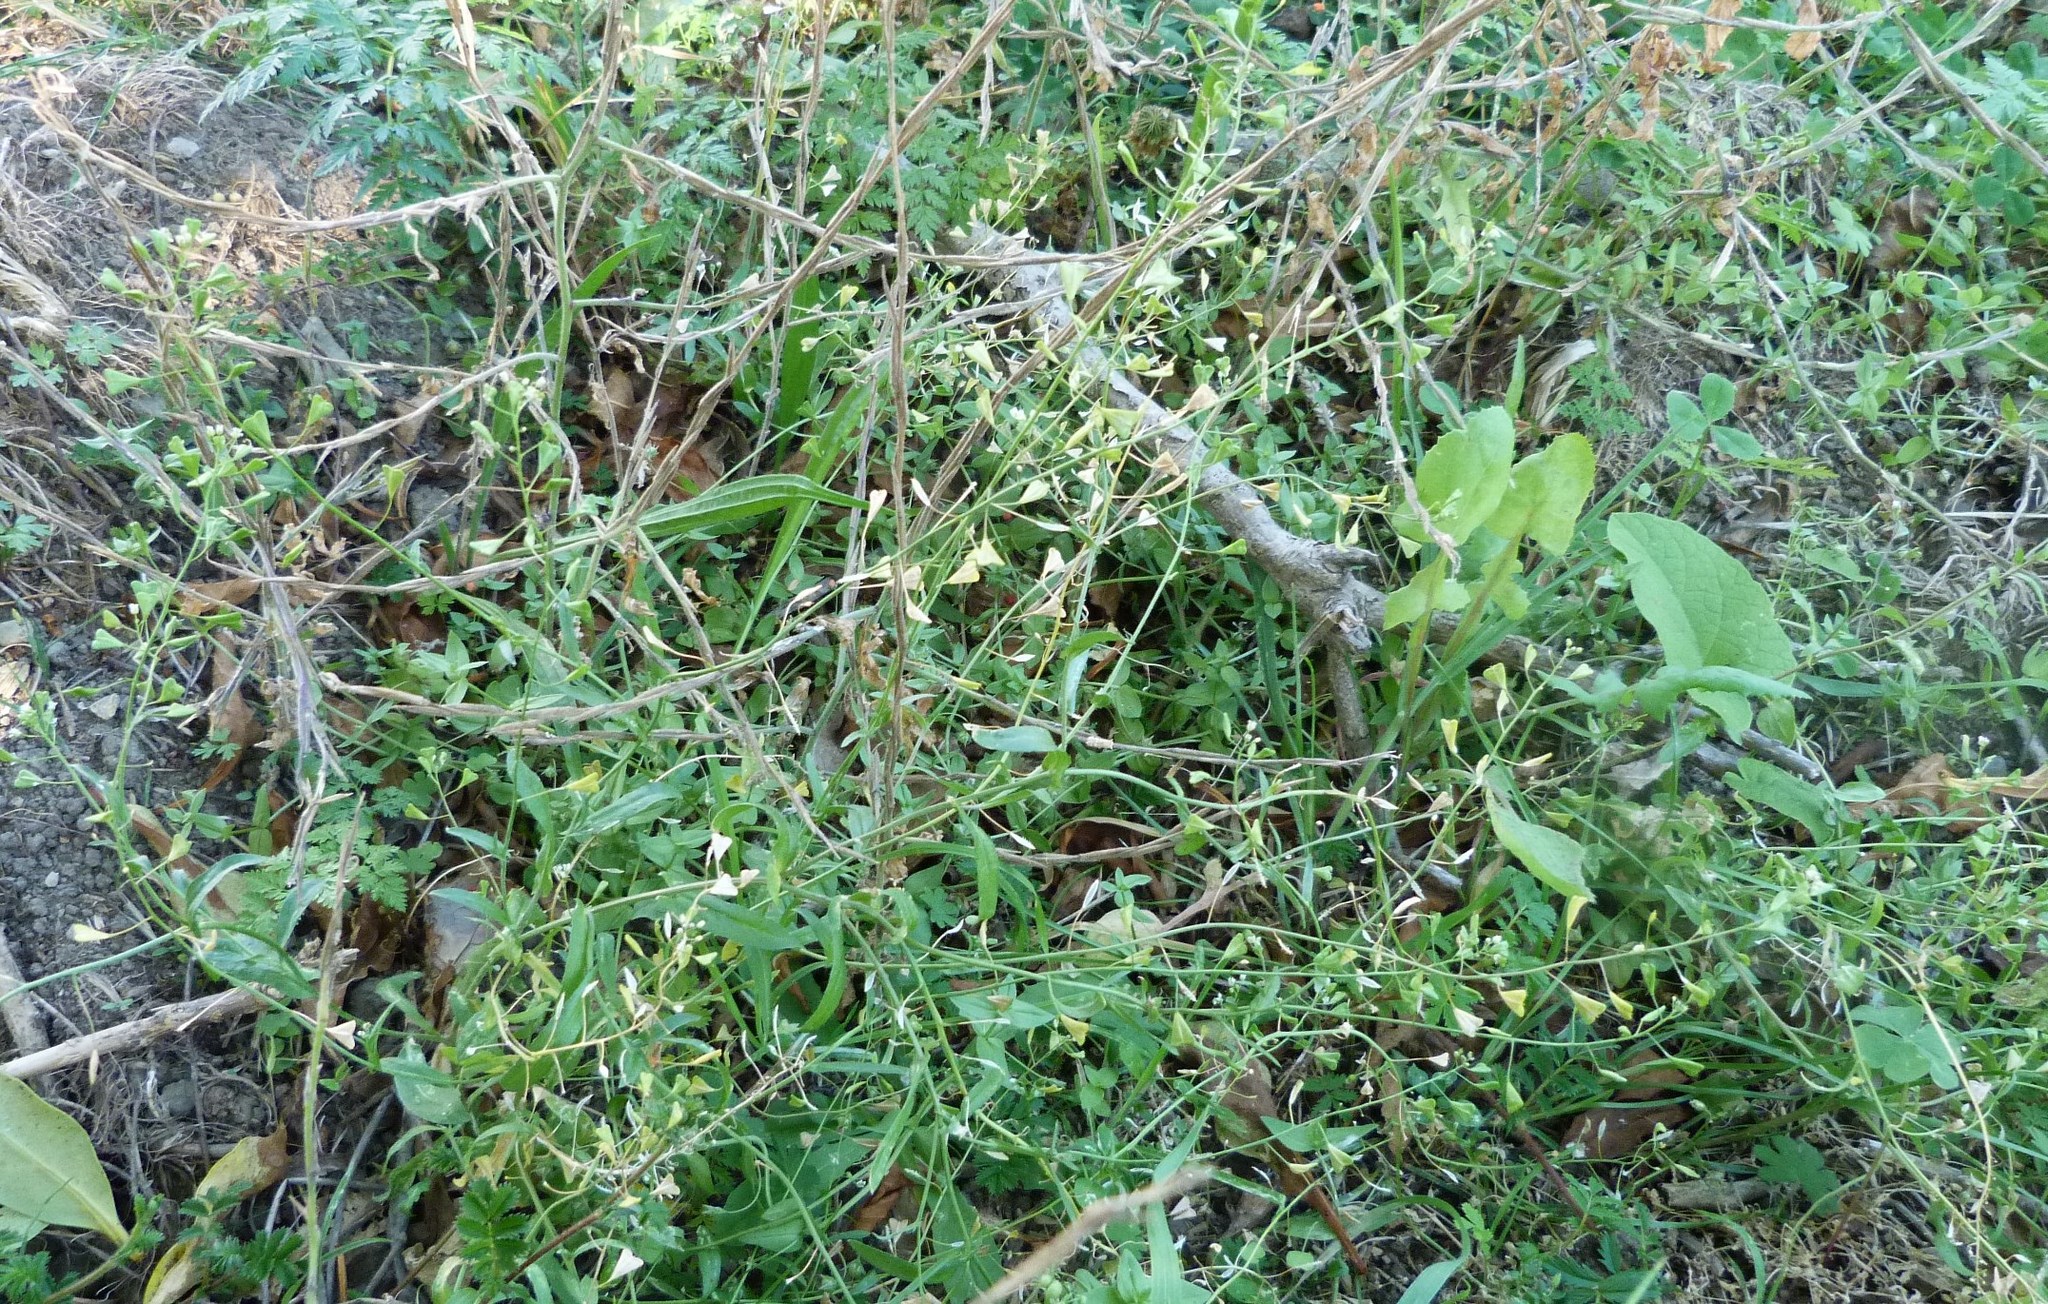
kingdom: Plantae
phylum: Tracheophyta
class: Magnoliopsida
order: Brassicales
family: Brassicaceae
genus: Capsella
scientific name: Capsella bursa-pastoris
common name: Shepherd's purse
